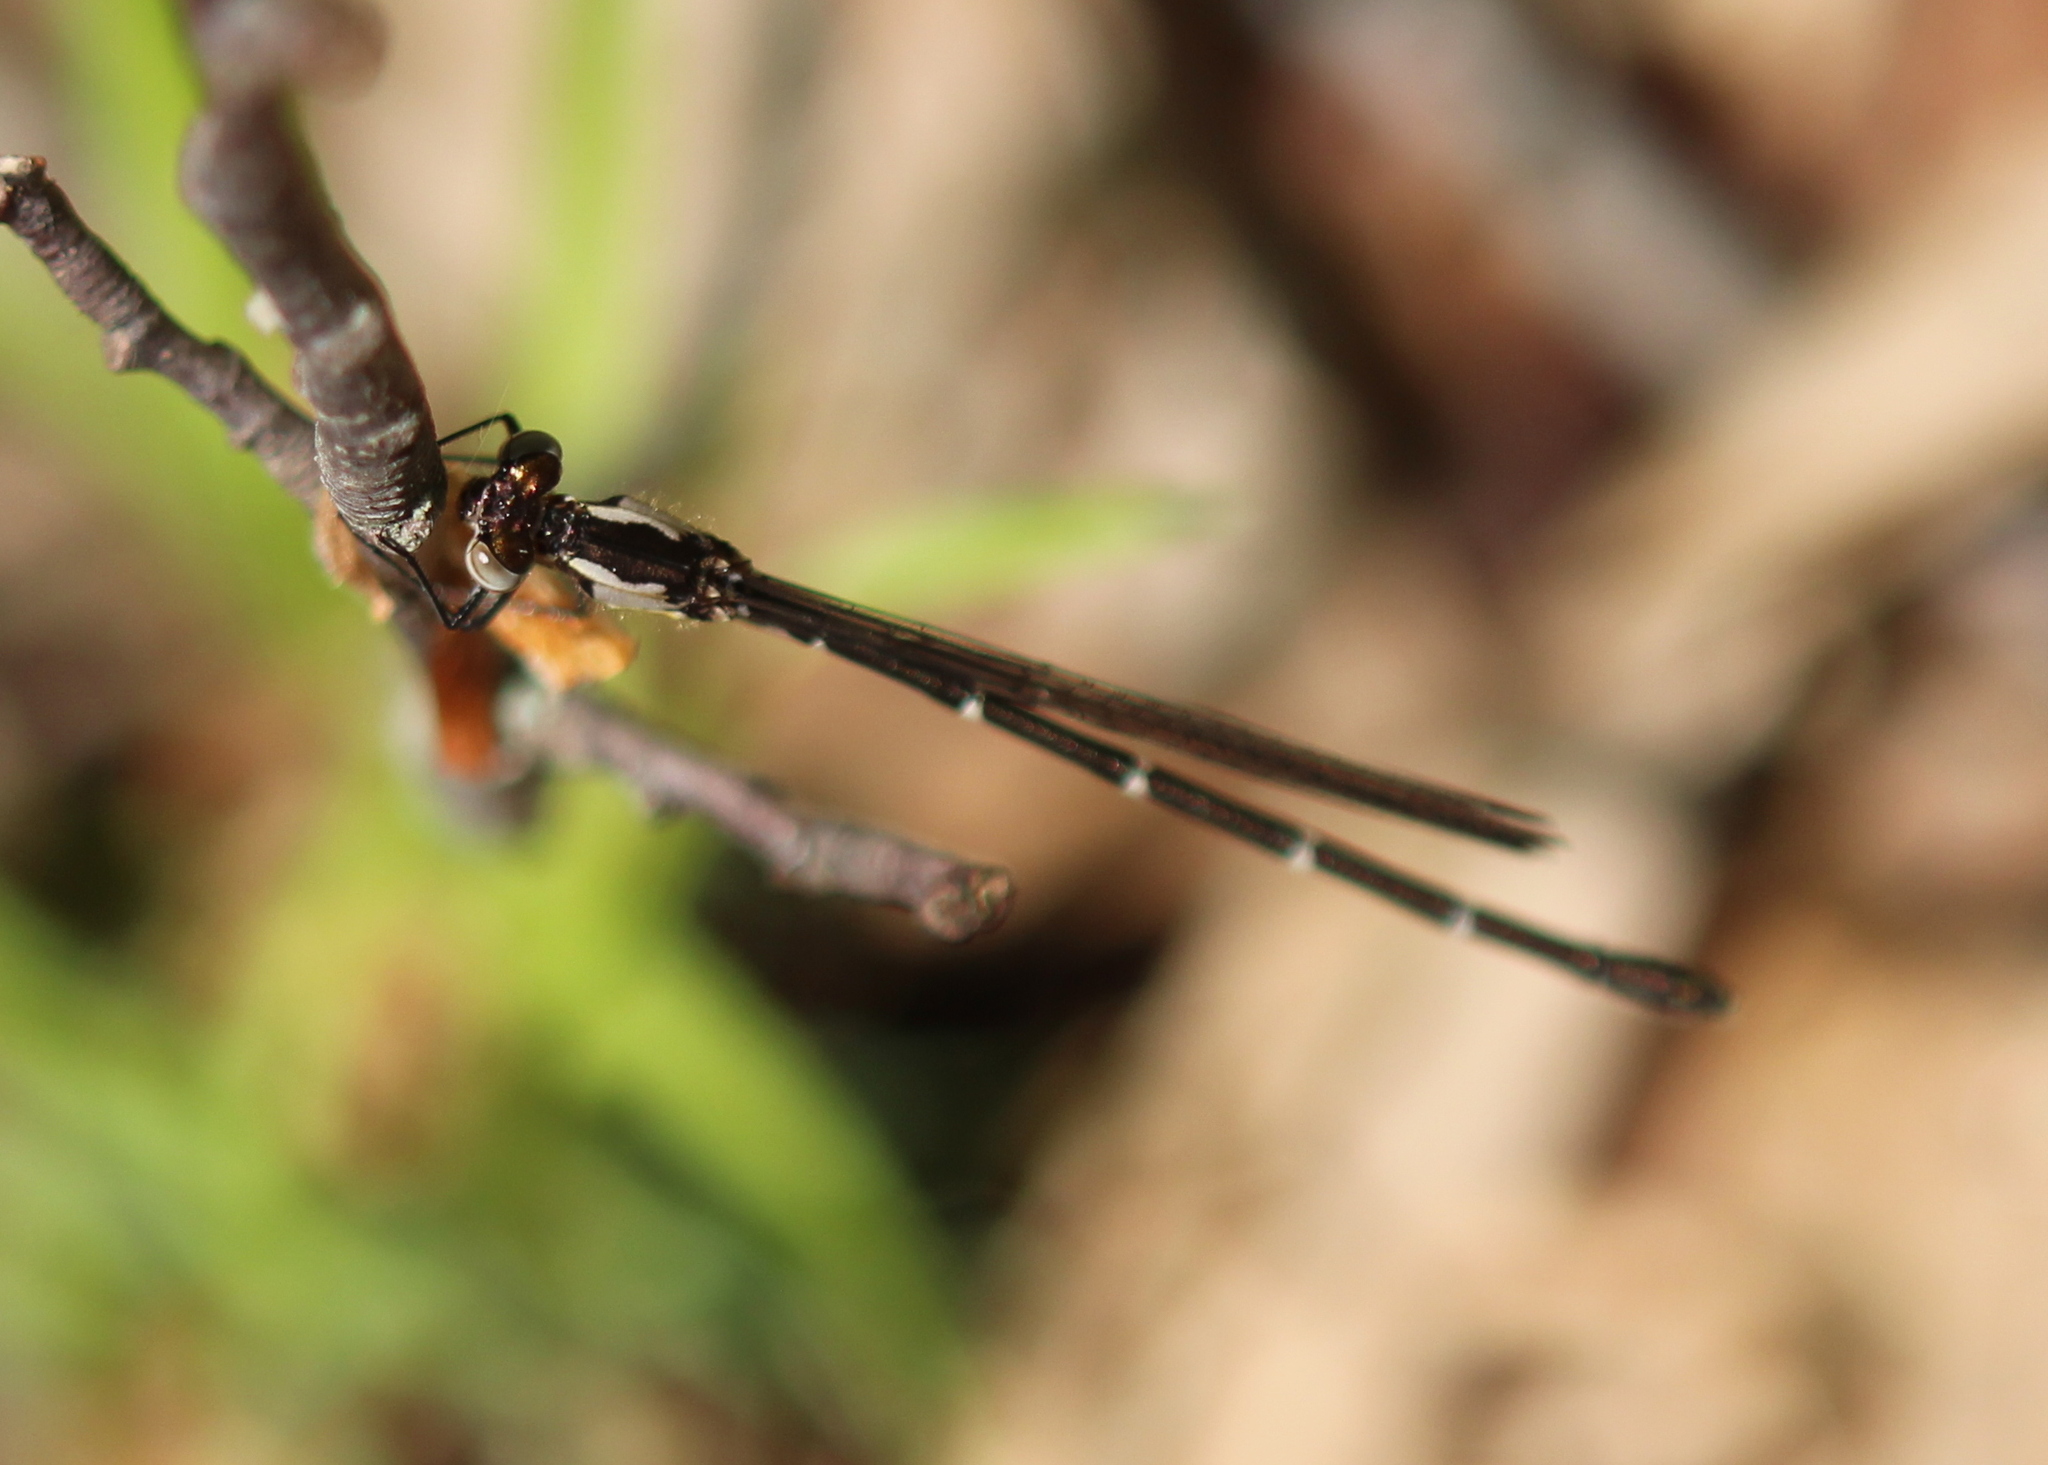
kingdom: Animalia
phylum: Arthropoda
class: Insecta
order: Odonata
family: Coenagrionidae
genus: Chromagrion
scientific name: Chromagrion conditum
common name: Aurora damsel
